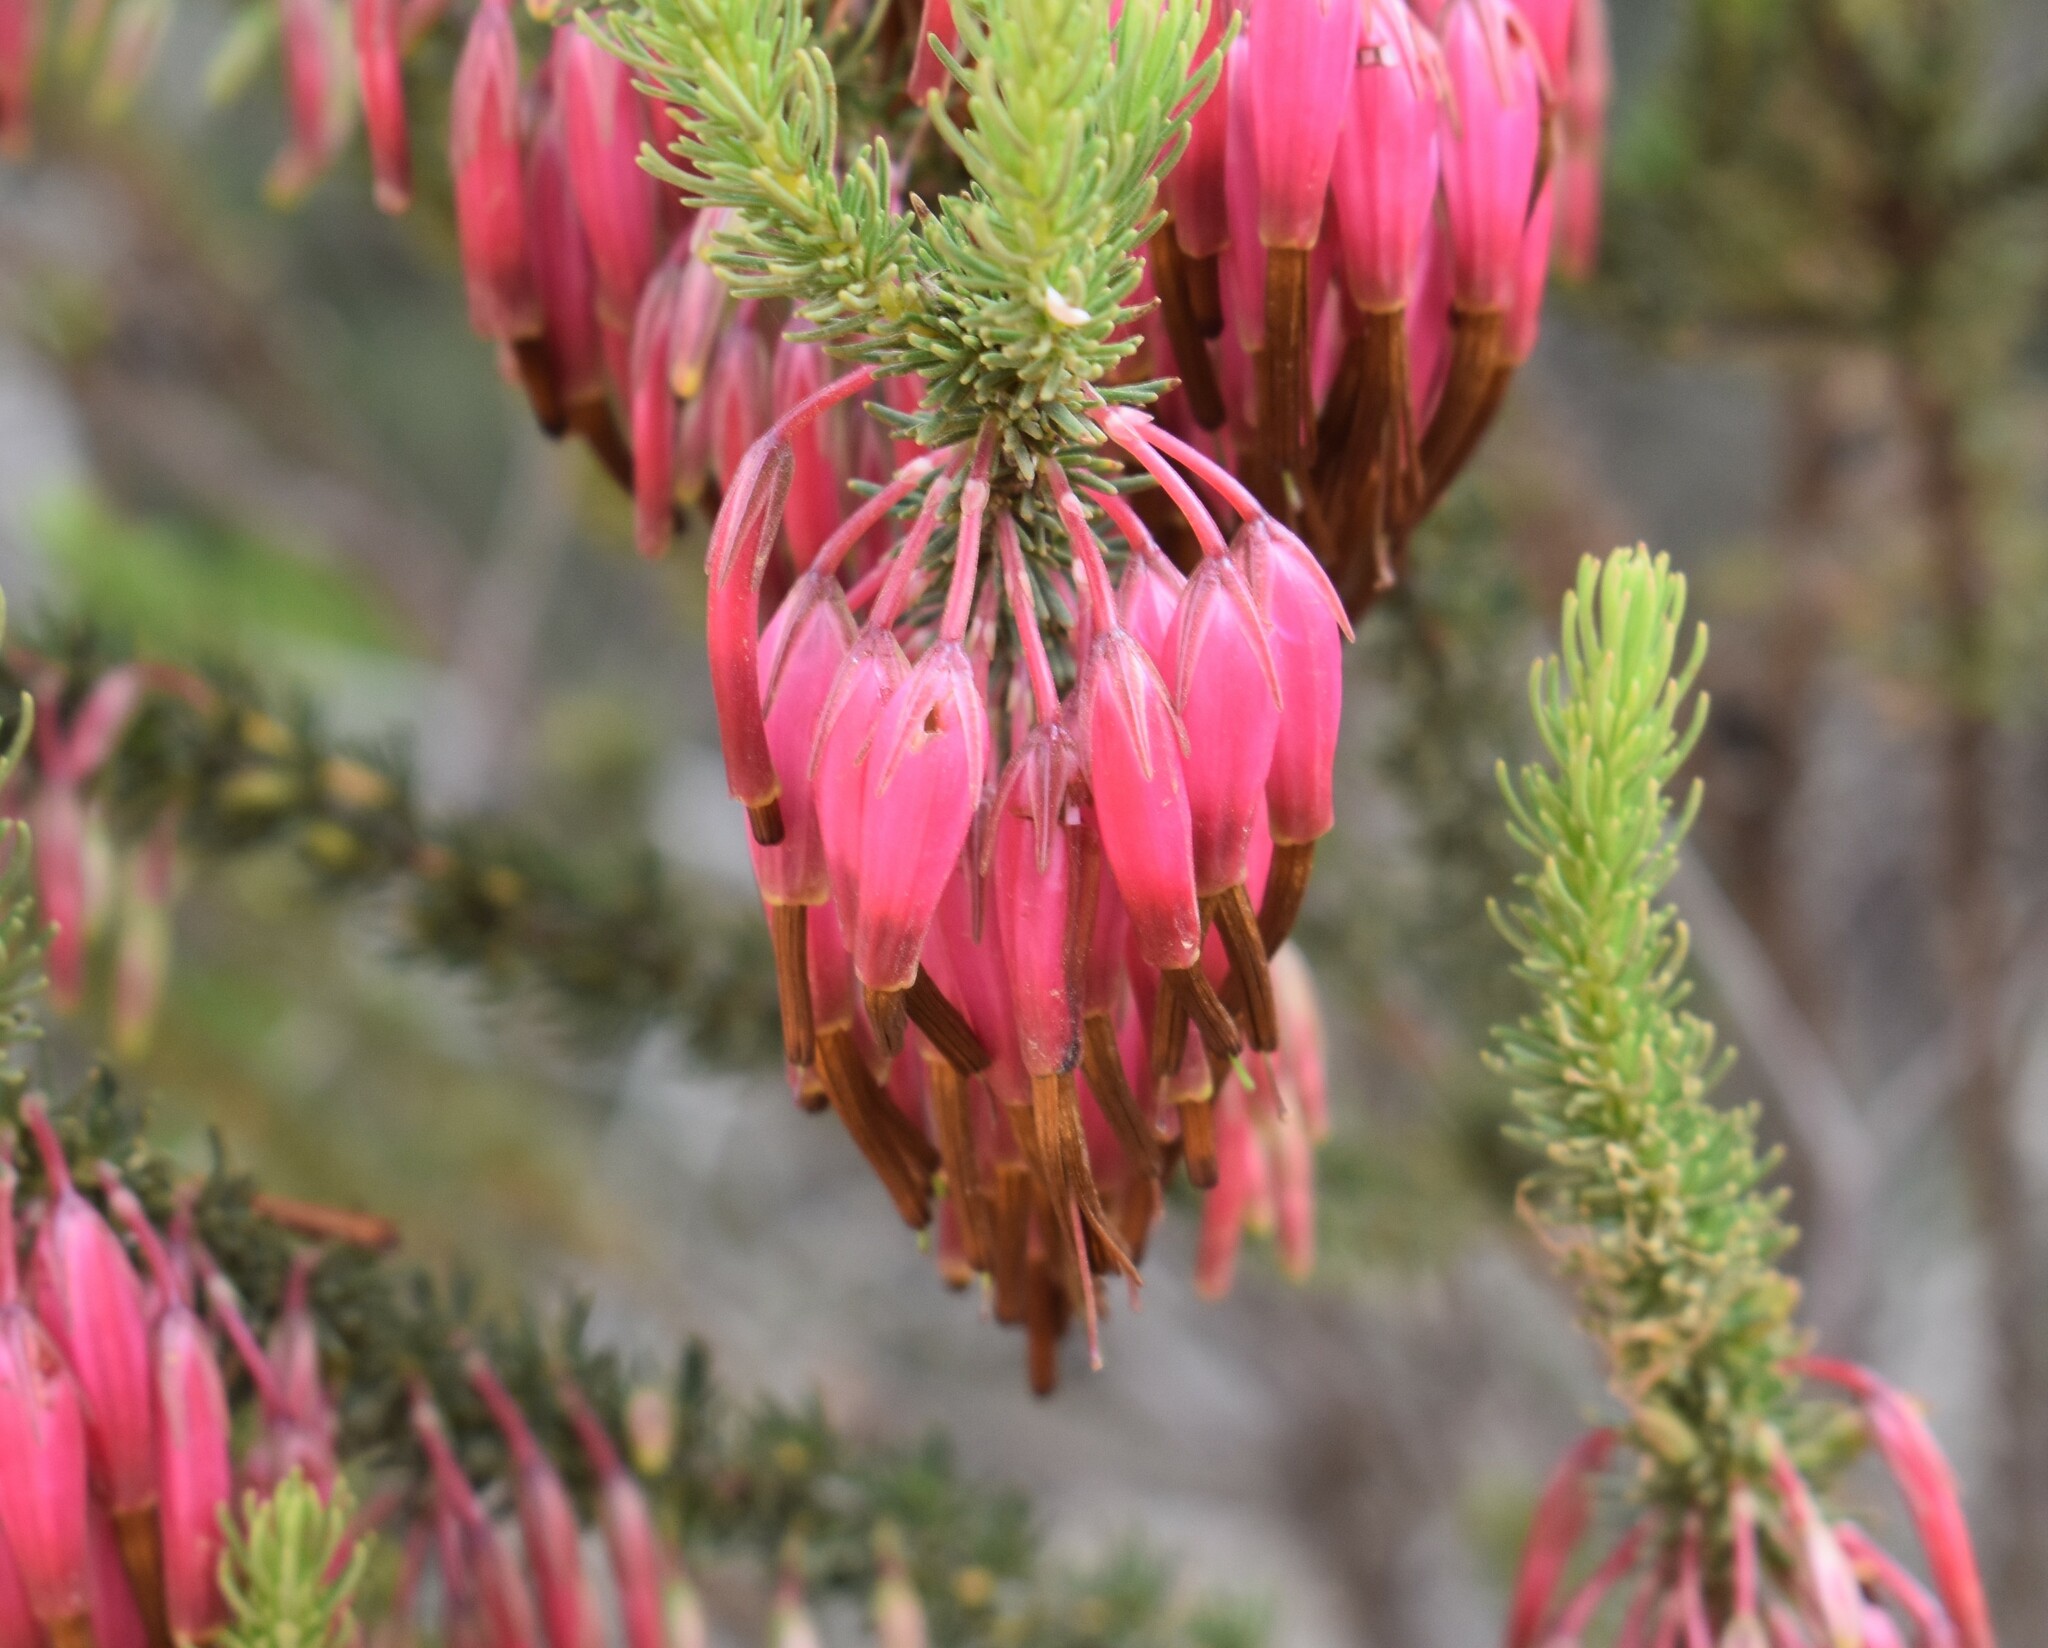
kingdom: Plantae
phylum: Tracheophyta
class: Magnoliopsida
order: Ericales
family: Ericaceae
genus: Erica
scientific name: Erica plukenetii
